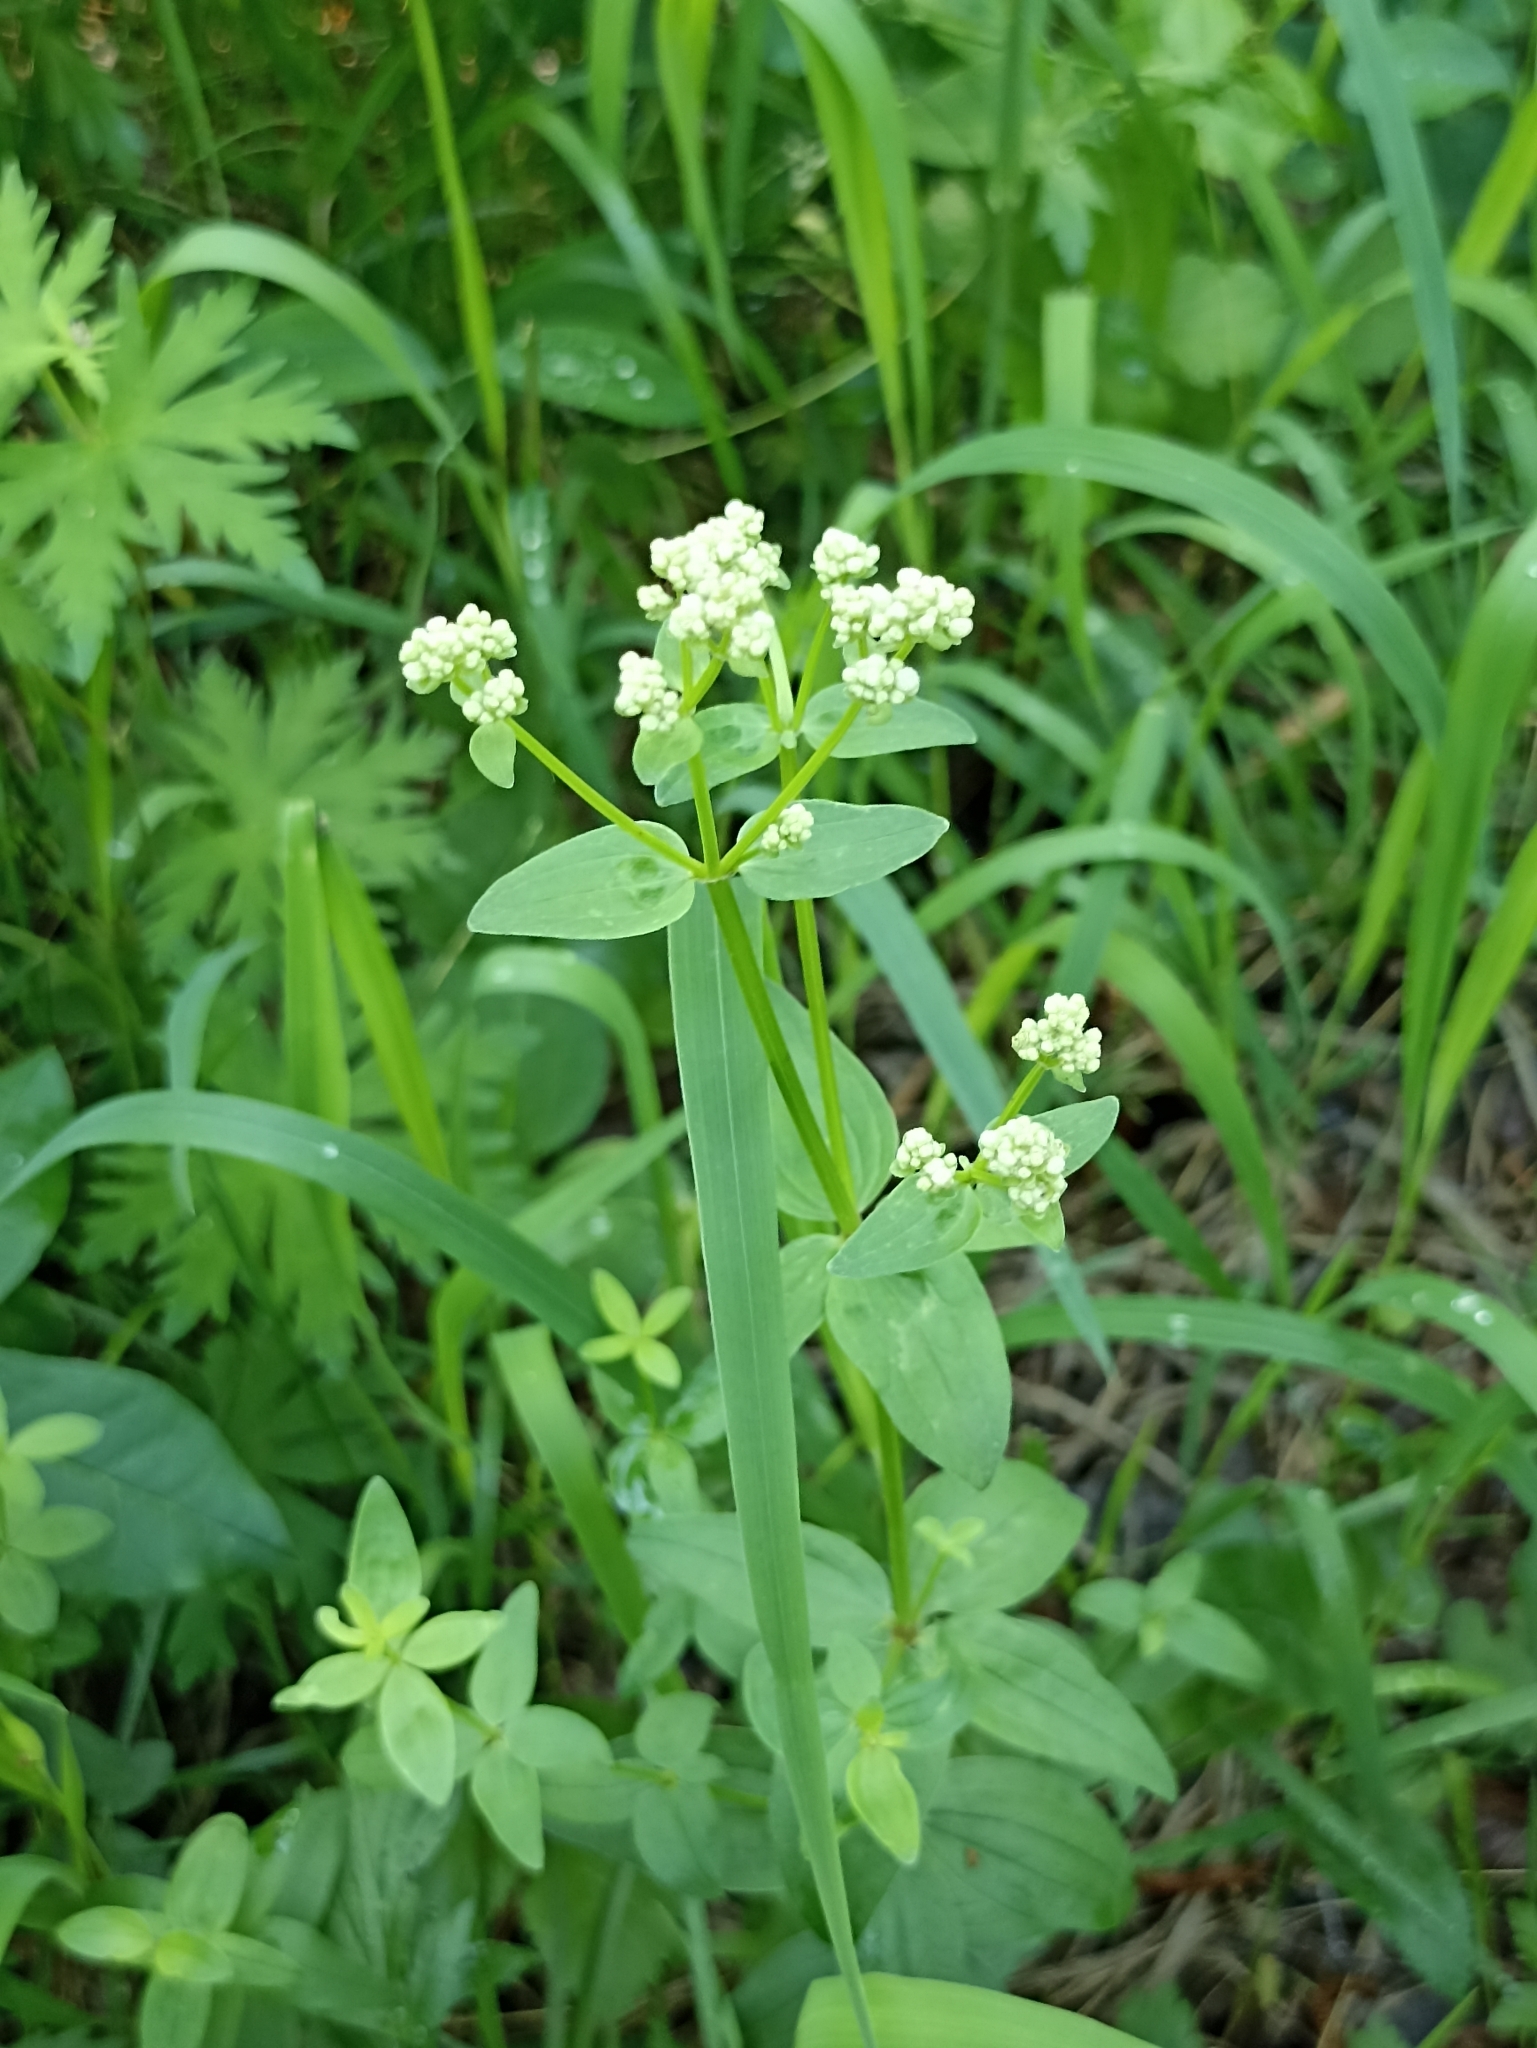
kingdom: Plantae
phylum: Tracheophyta
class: Magnoliopsida
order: Gentianales
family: Rubiaceae
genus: Galium
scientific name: Galium boreale
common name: Northern bedstraw
